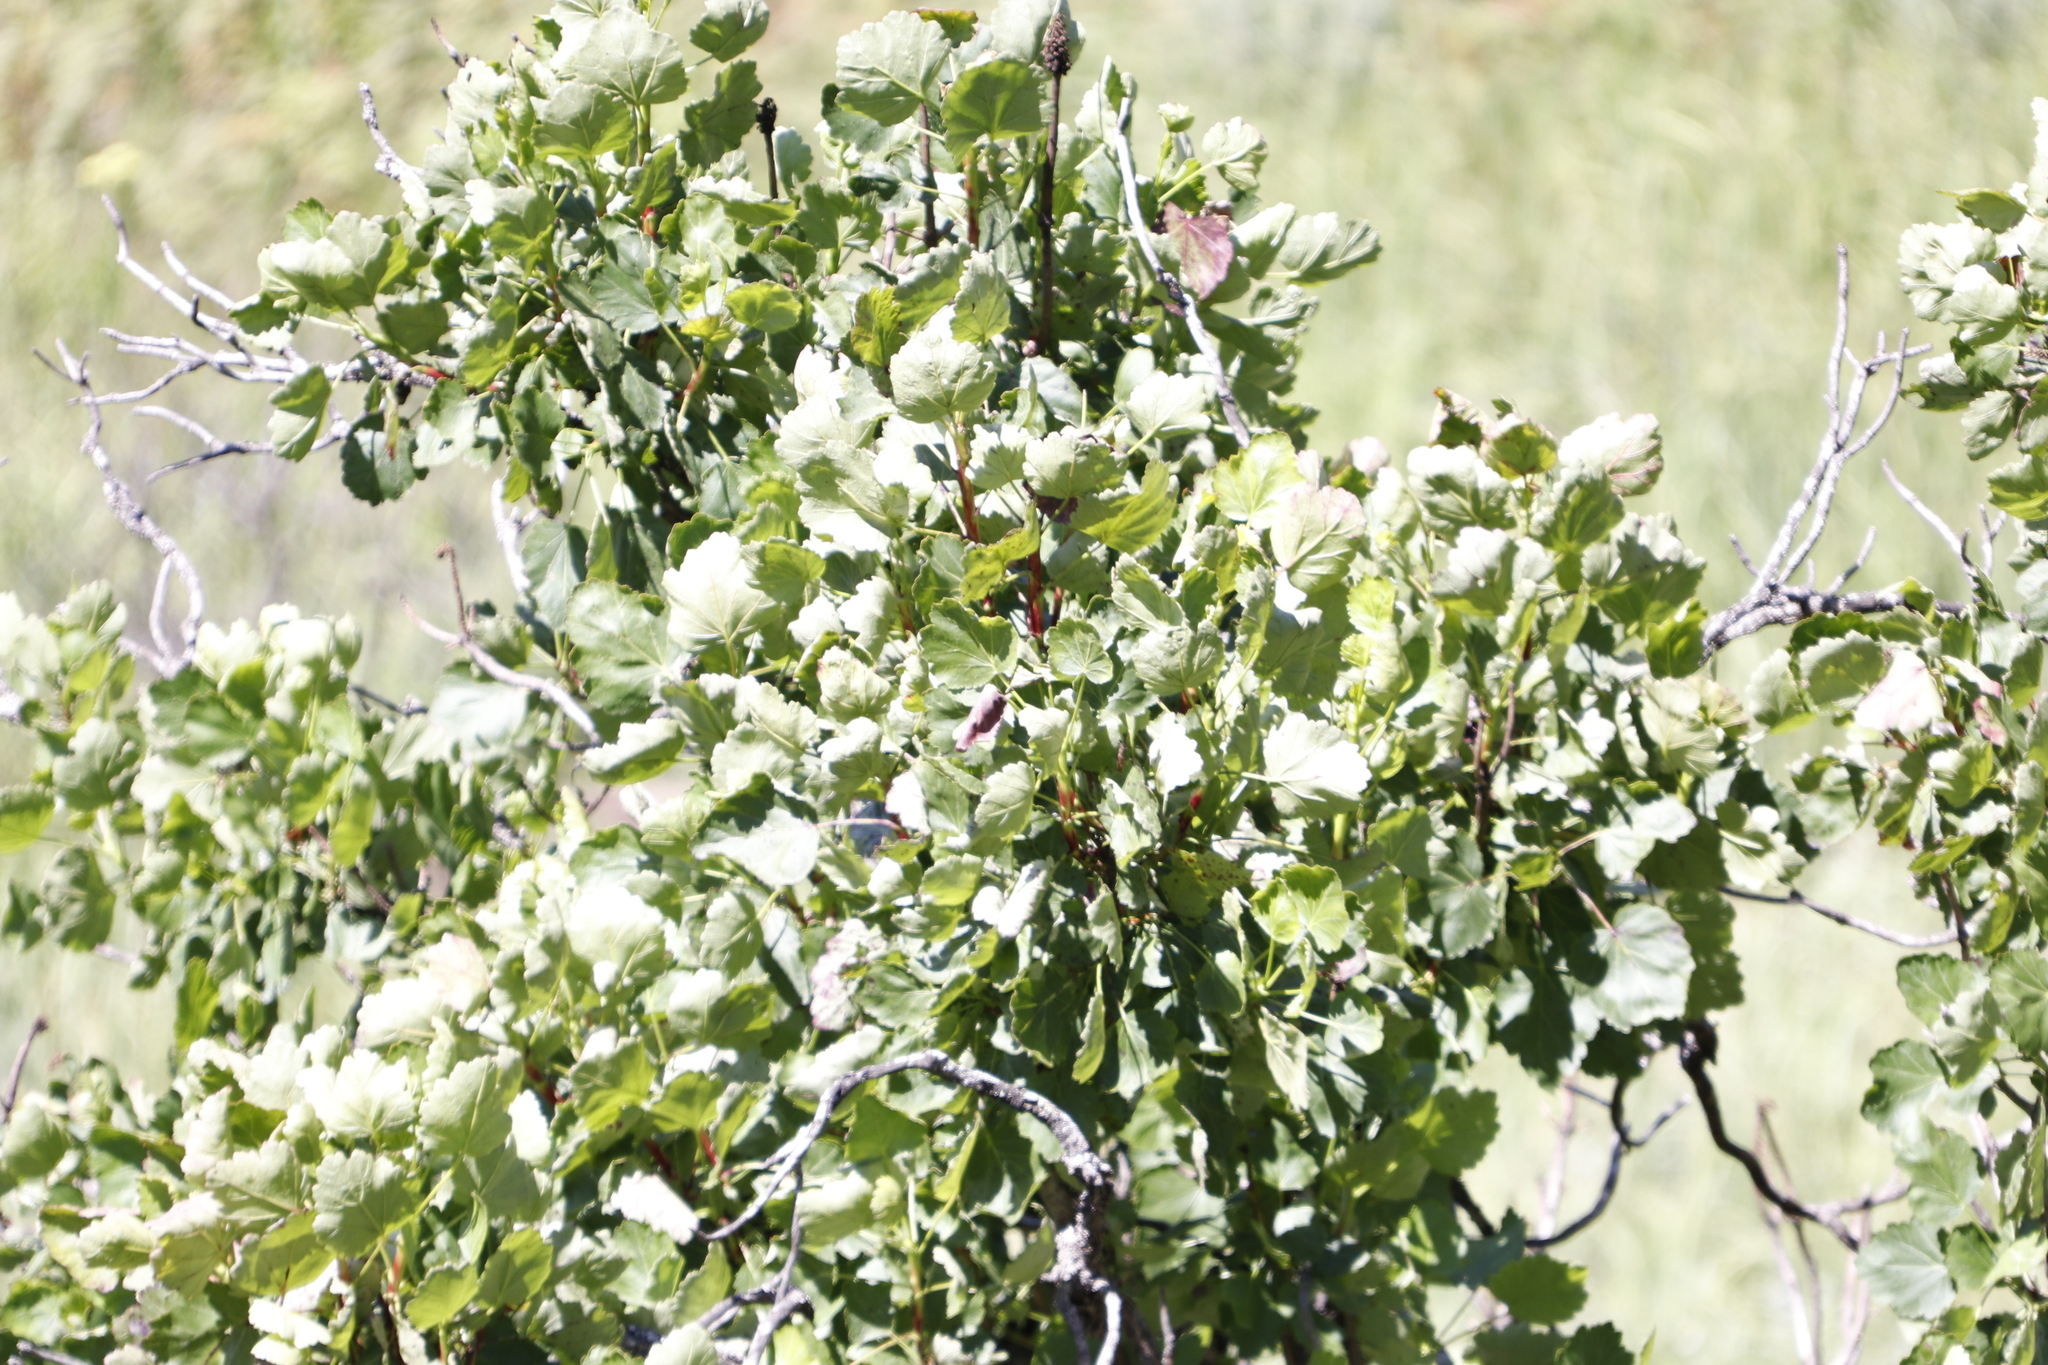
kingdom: Plantae
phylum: Tracheophyta
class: Magnoliopsida
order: Geraniales
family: Francoaceae
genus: Greyia
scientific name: Greyia sutherlandii
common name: Glossy bottlebrush
